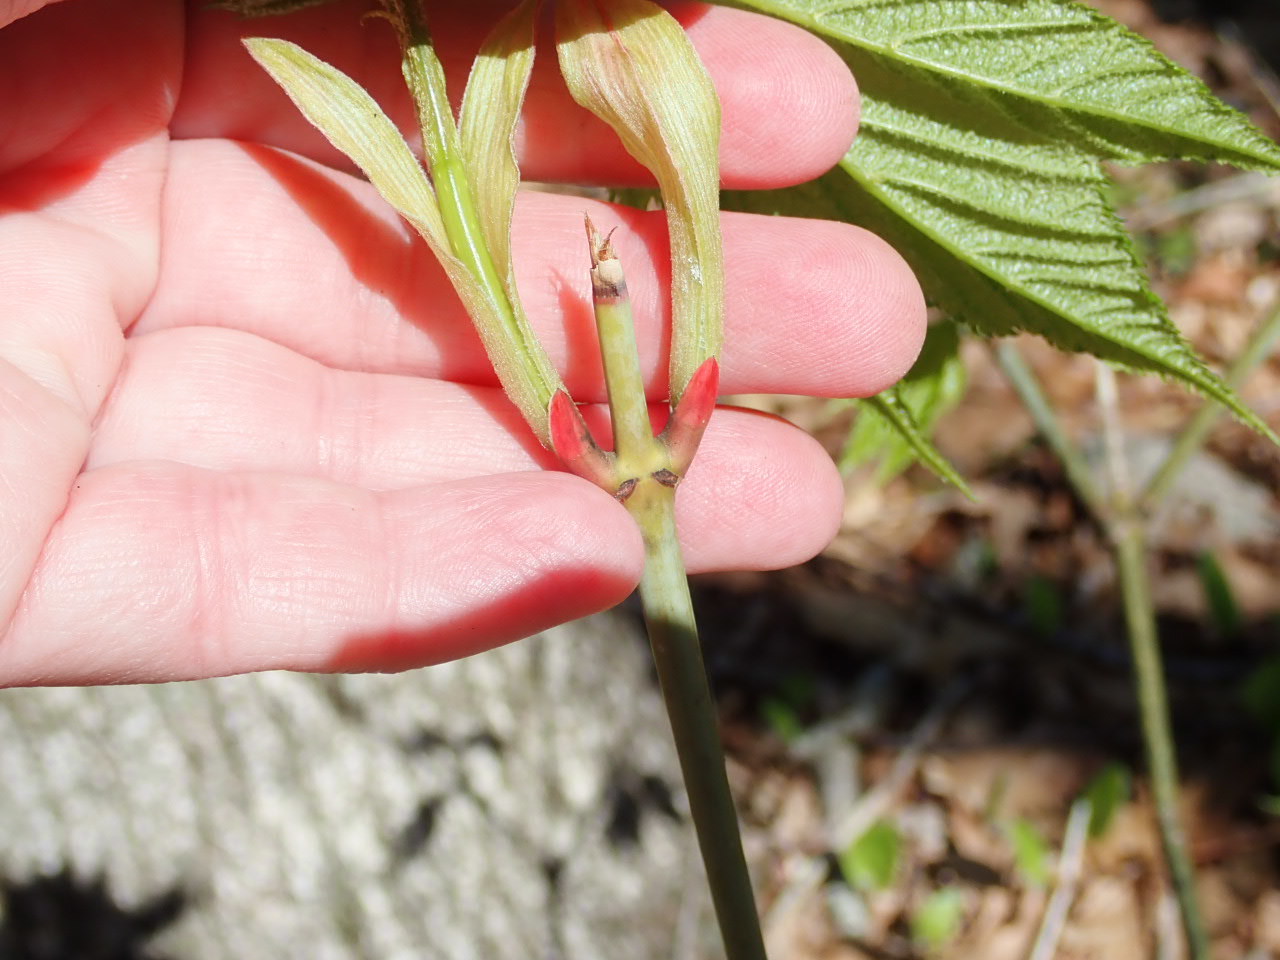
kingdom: Plantae
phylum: Tracheophyta
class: Magnoliopsida
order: Dipsacales
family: Viburnaceae
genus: Viburnum
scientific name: Viburnum acerifolium
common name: Dockmackie
